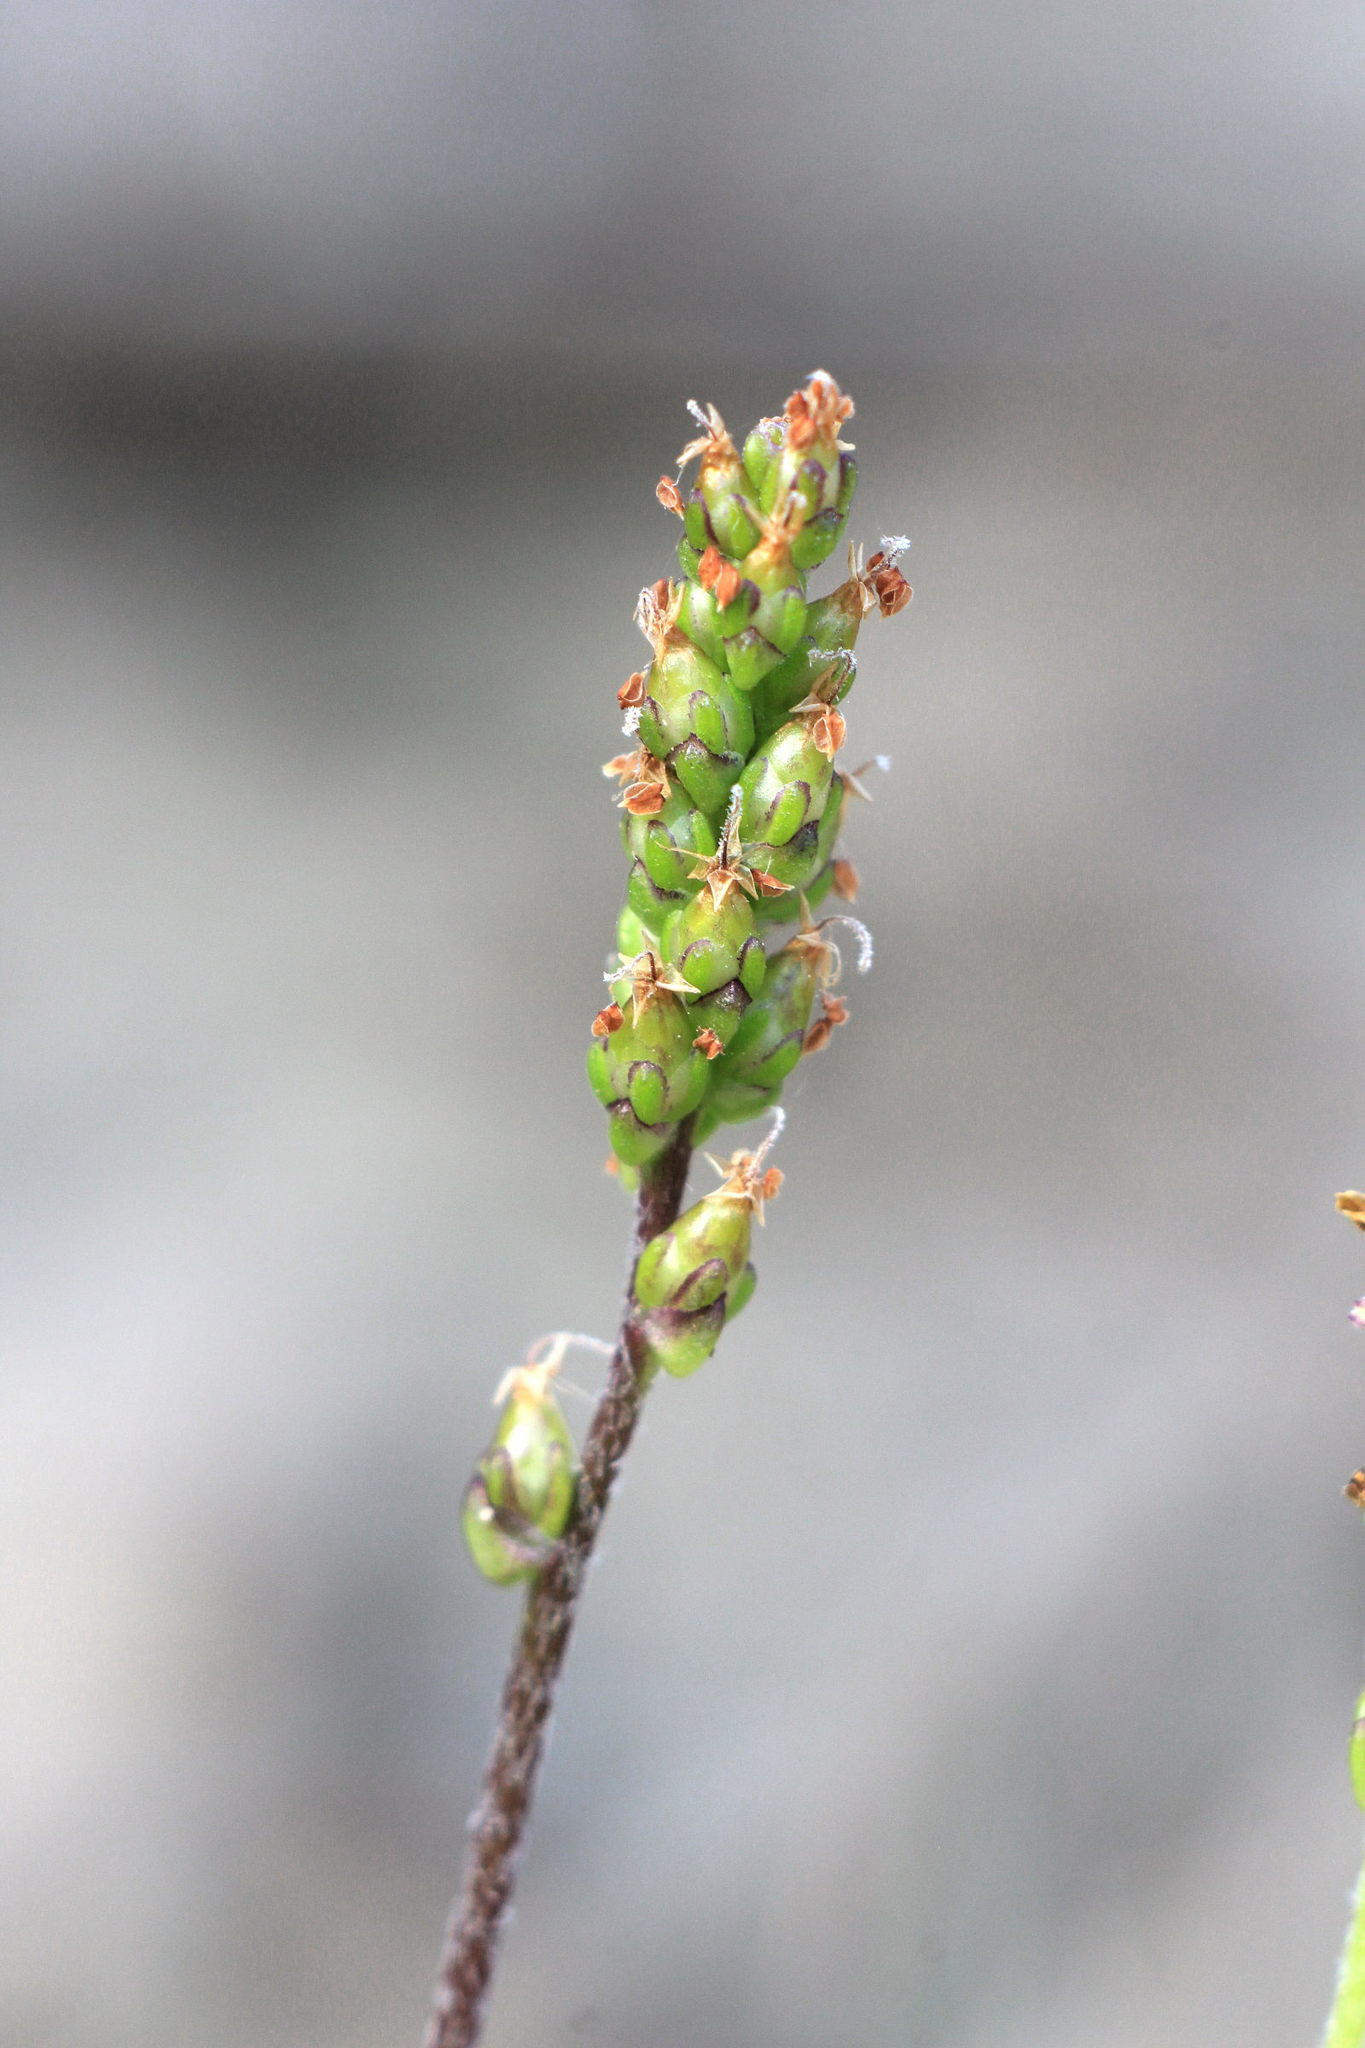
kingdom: Plantae
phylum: Tracheophyta
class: Magnoliopsida
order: Lamiales
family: Plantaginaceae
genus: Plantago
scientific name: Plantago major
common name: Common plantain
